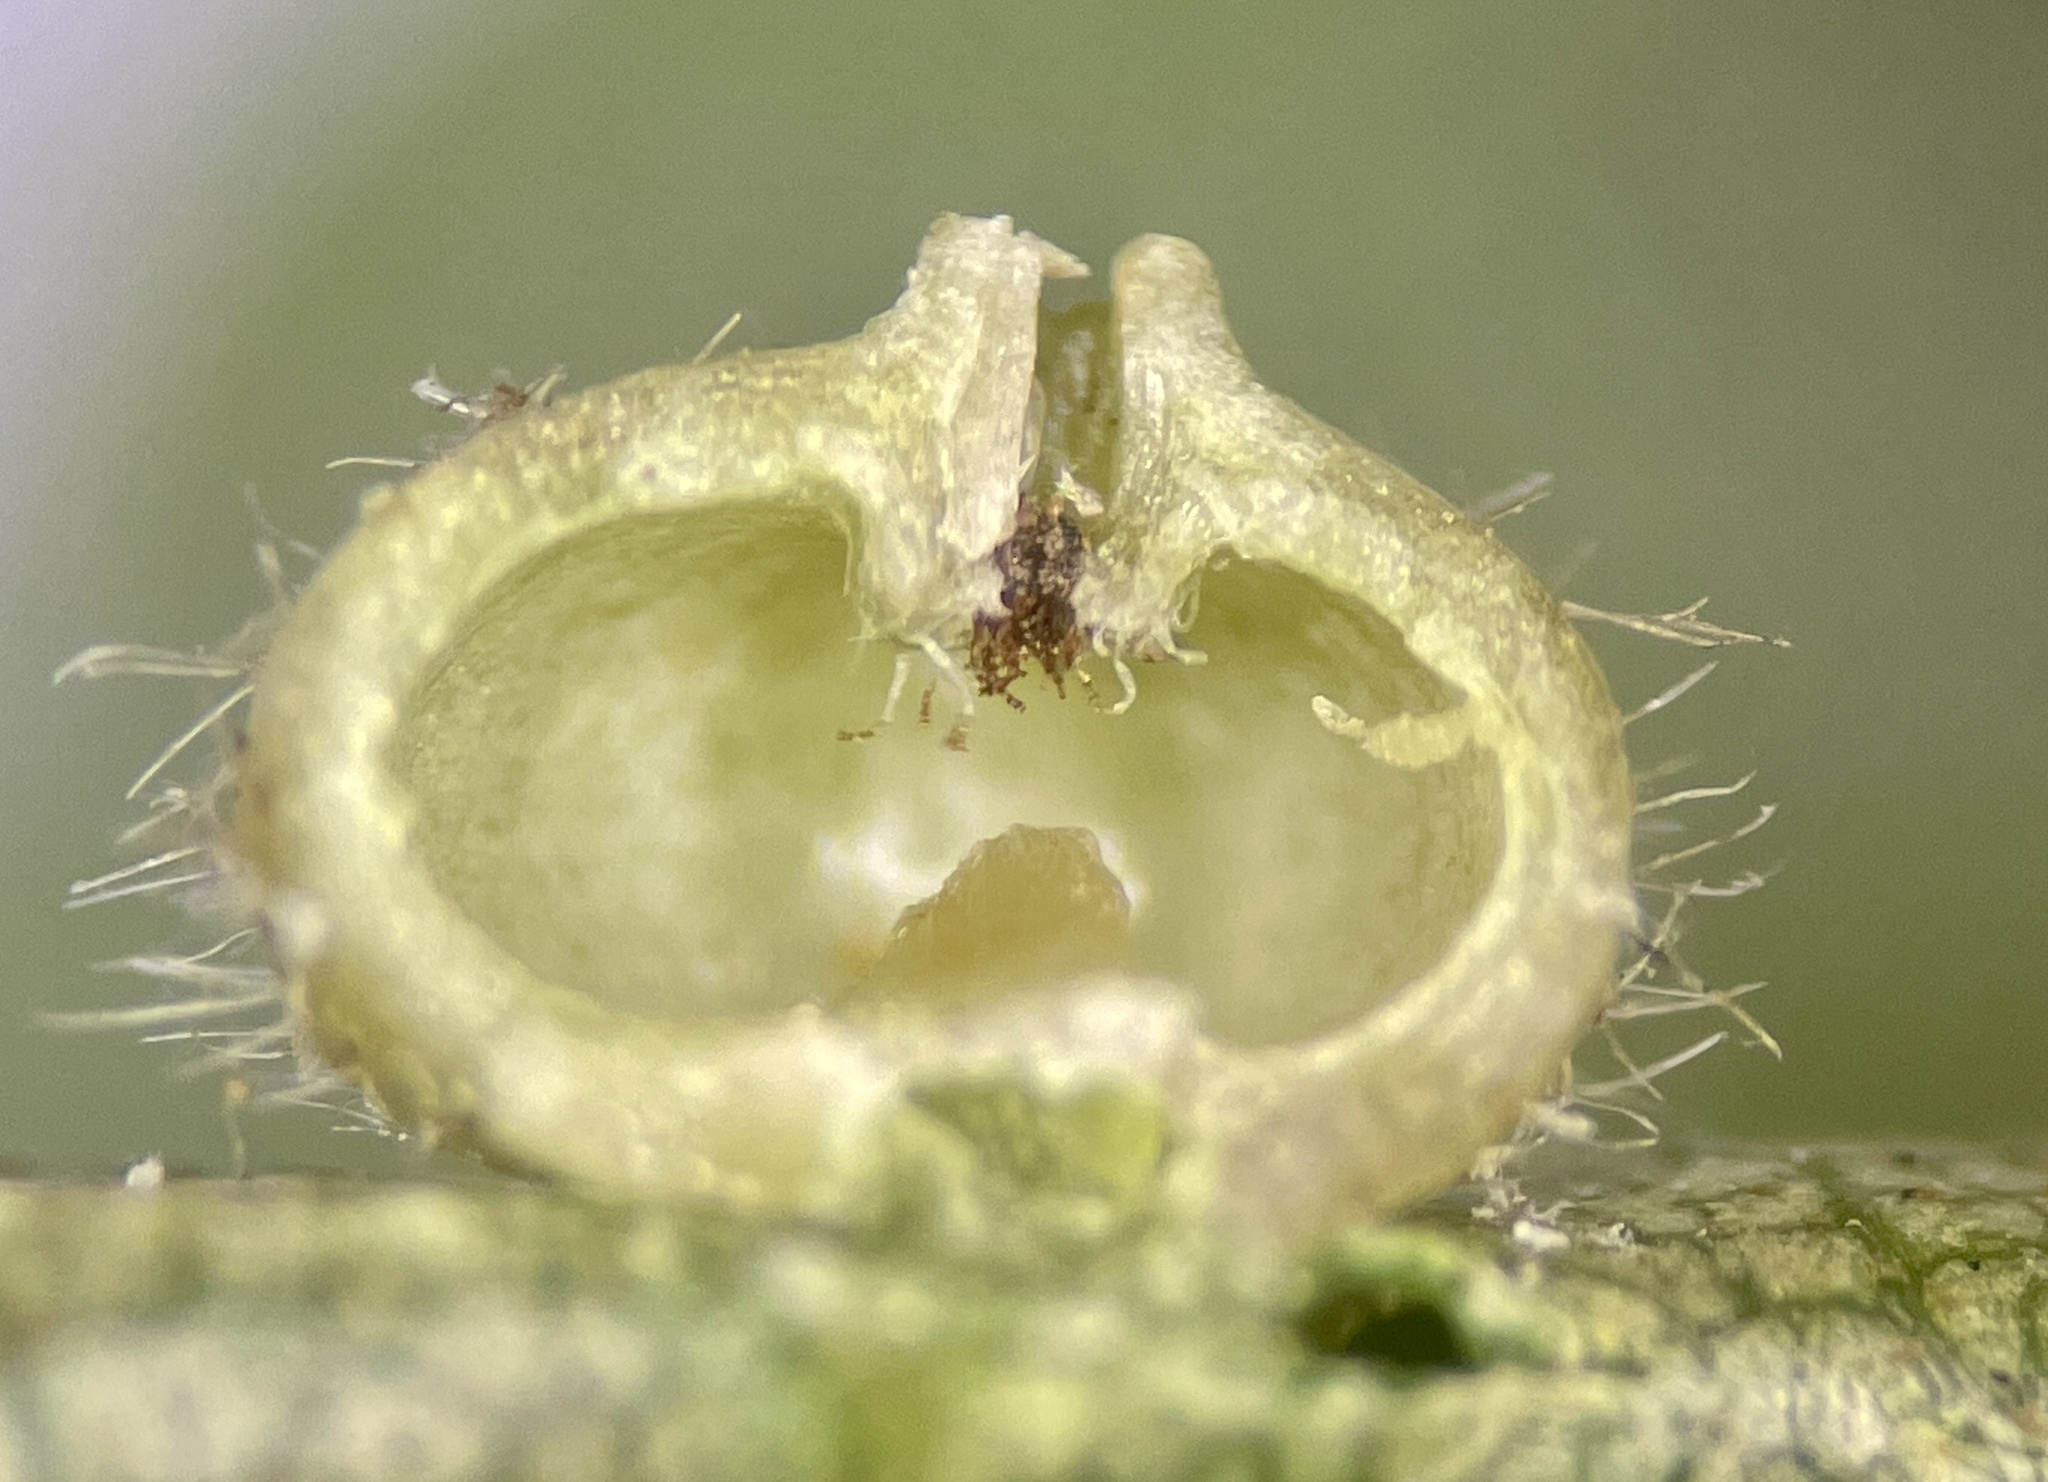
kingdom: Animalia
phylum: Arthropoda
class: Insecta
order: Diptera
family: Cecidomyiidae
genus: Caryomyia
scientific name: Caryomyia thompsoni
